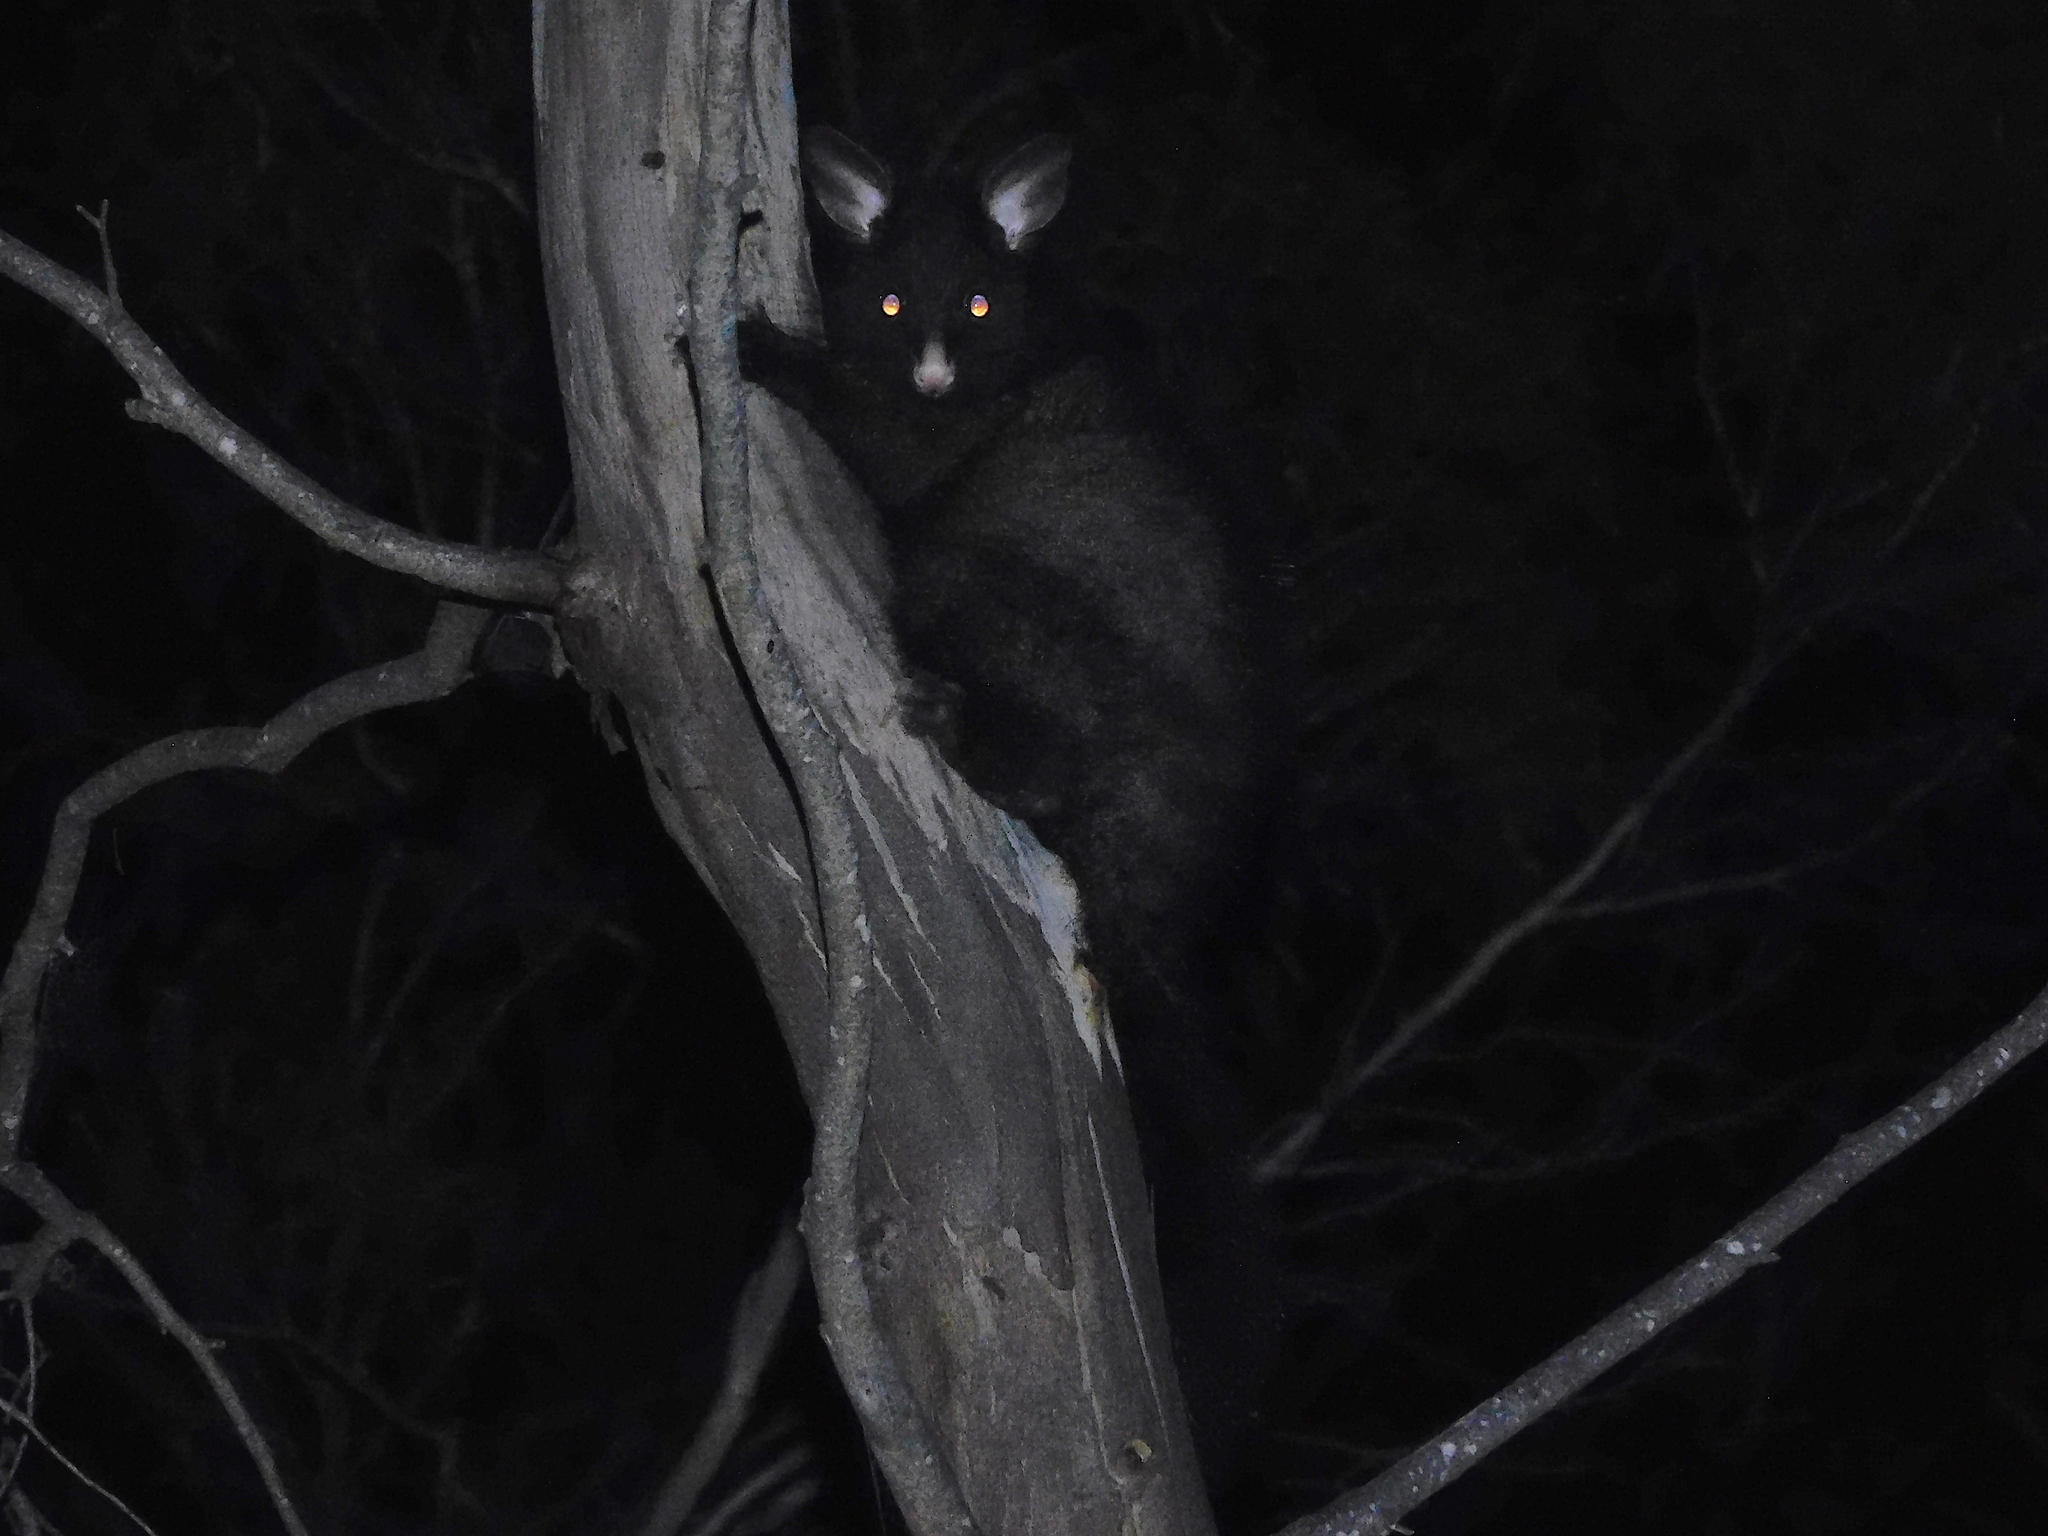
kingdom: Animalia
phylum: Chordata
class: Mammalia
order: Diprotodontia
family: Phalangeridae
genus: Trichosurus
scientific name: Trichosurus vulpecula
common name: Common brushtail
